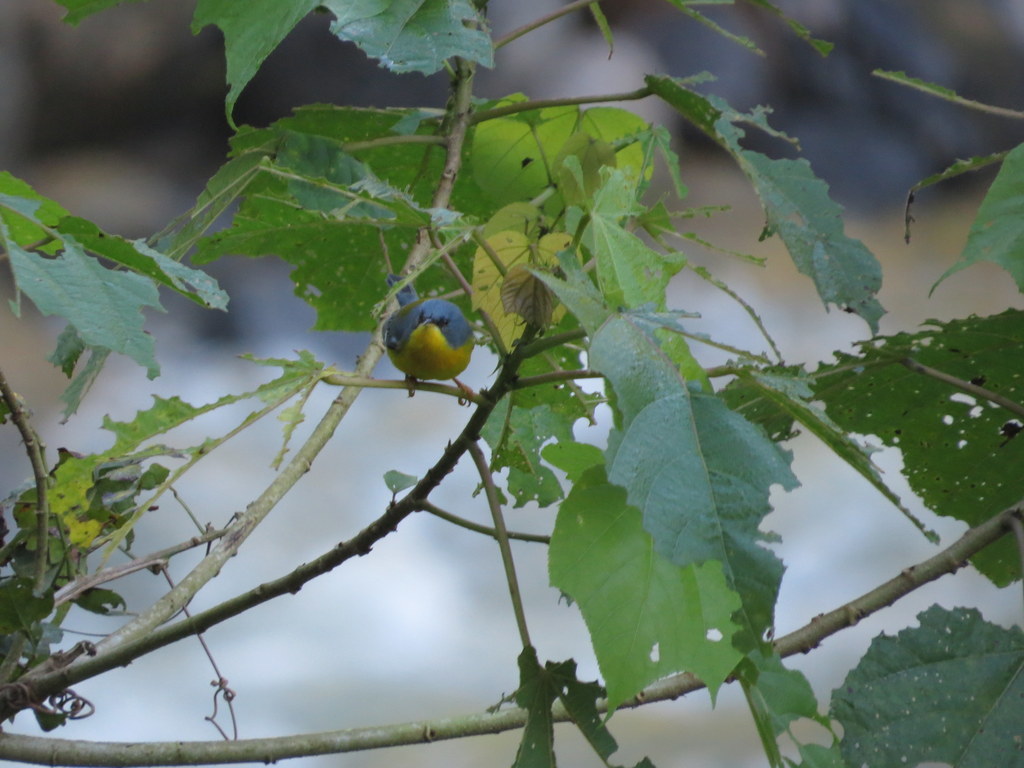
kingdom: Animalia
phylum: Chordata
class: Aves
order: Passeriformes
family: Parulidae
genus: Setophaga
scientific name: Setophaga pitiayumi
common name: Tropical parula
